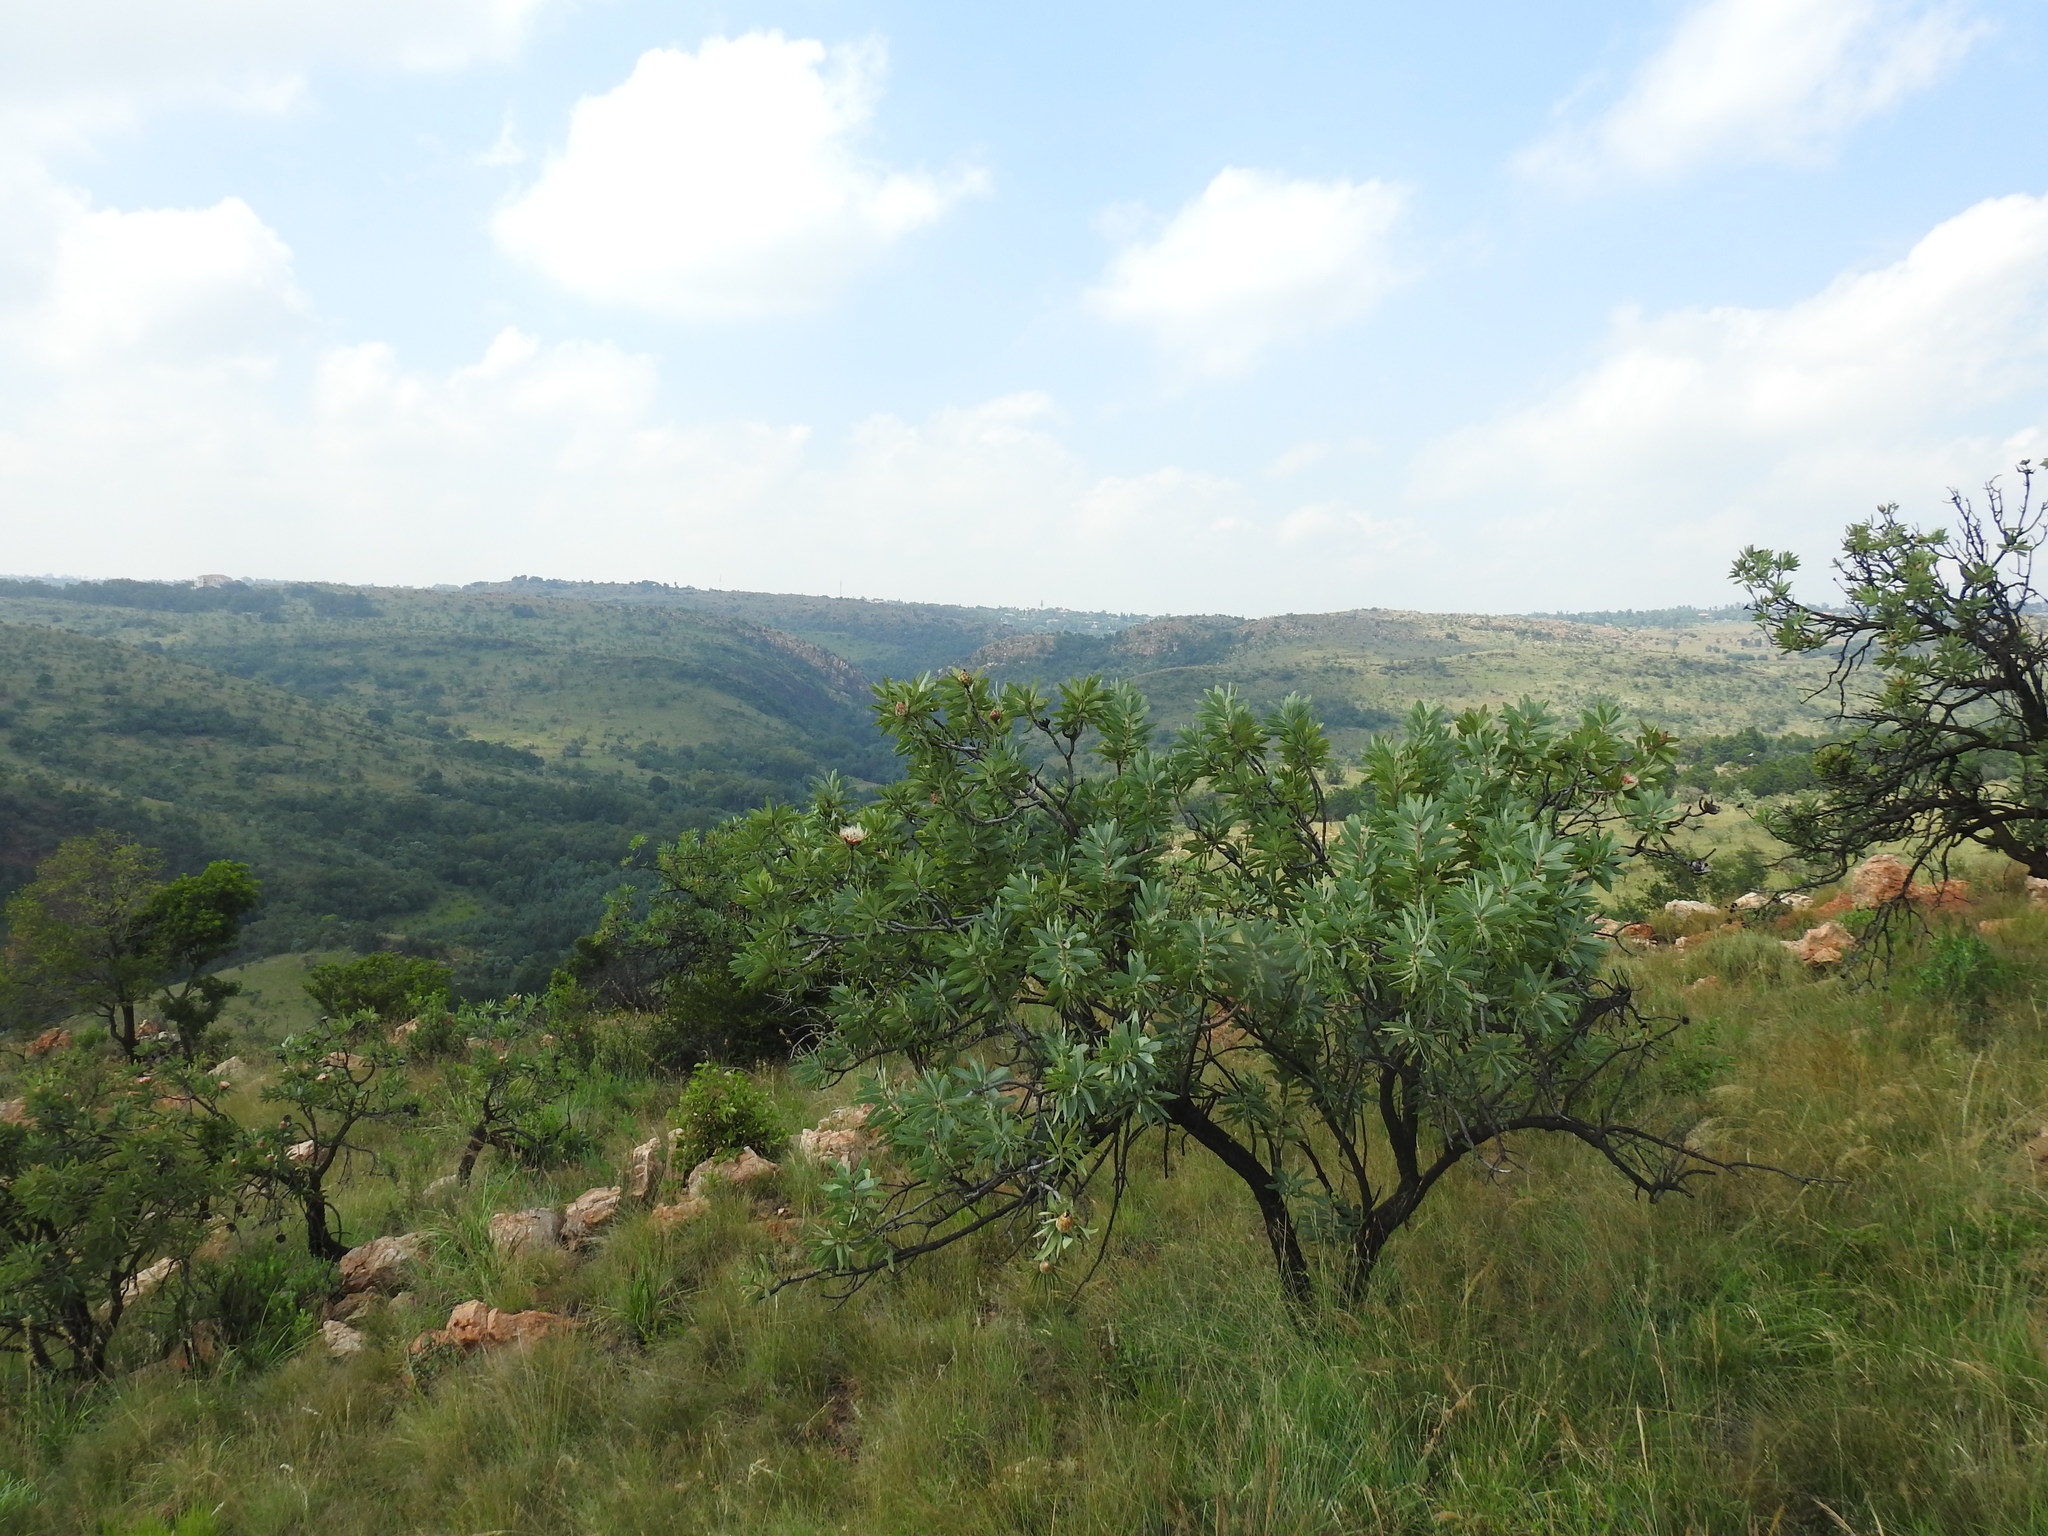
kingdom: Plantae
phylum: Tracheophyta
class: Magnoliopsida
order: Proteales
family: Proteaceae
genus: Protea
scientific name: Protea caffra
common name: Common sugarbush
